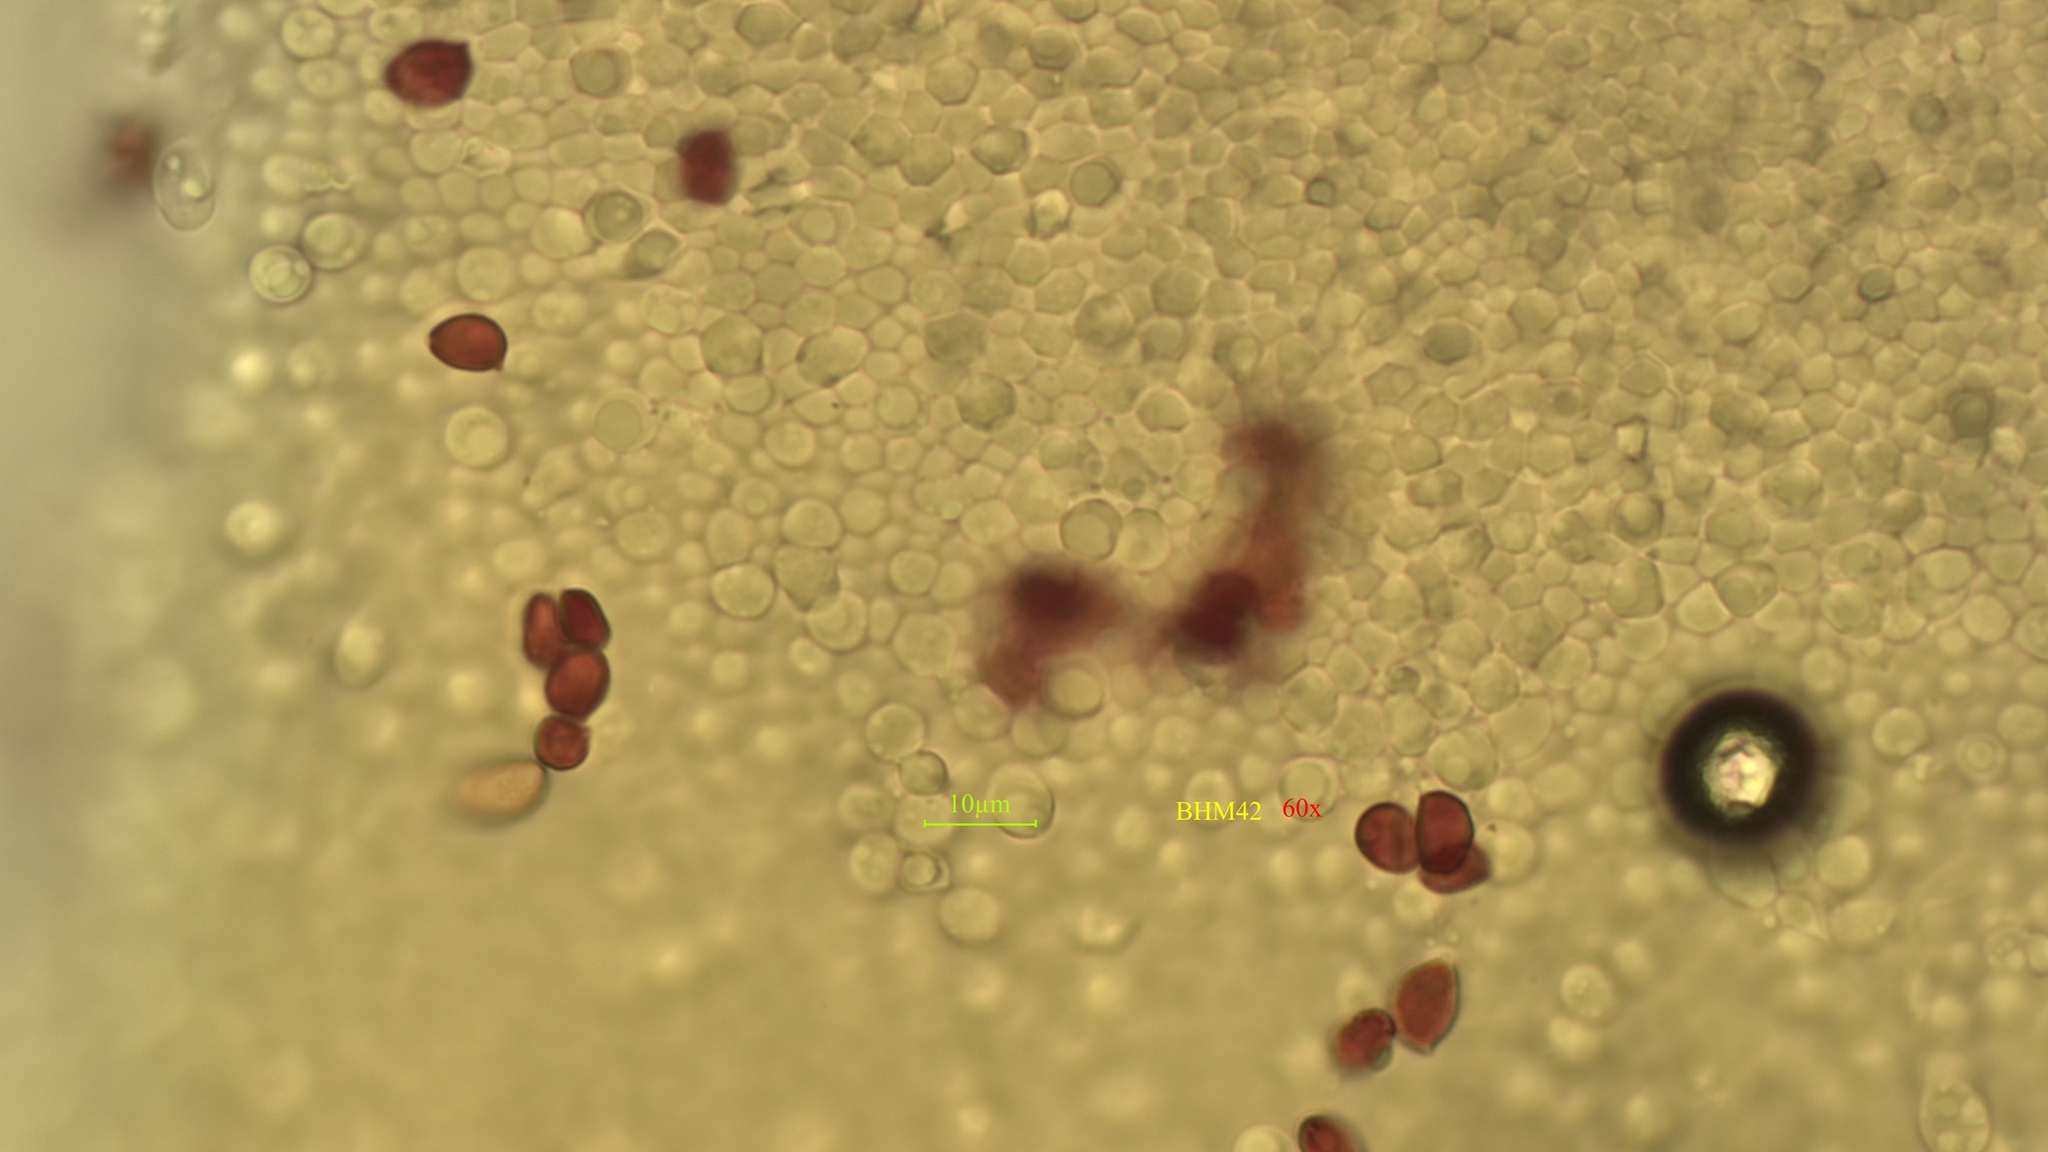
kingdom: Fungi
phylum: Basidiomycota
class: Agaricomycetes
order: Agaricales
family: Tricholomataceae
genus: Tricholoma
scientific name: Tricholoma terreum
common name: Grey knight
